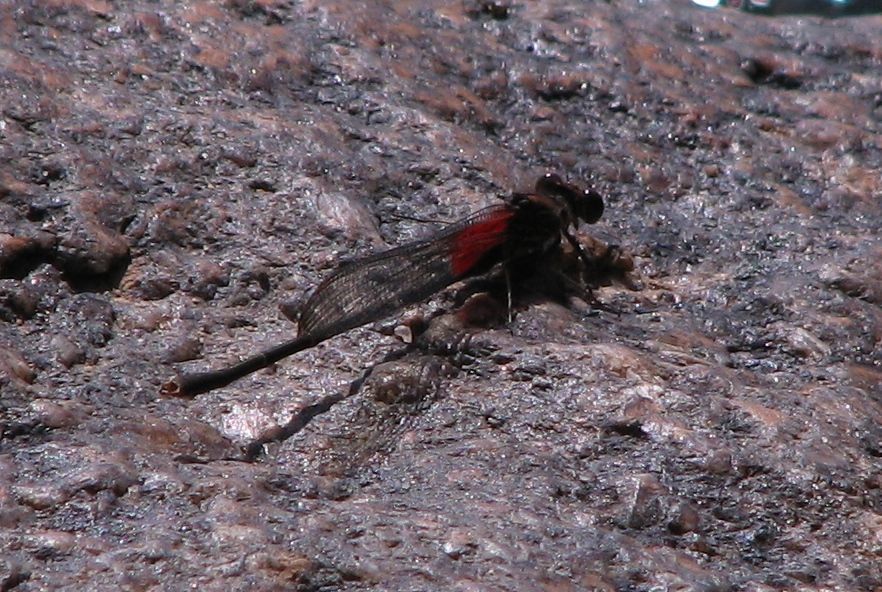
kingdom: Animalia
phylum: Arthropoda
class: Insecta
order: Odonata
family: Calopterygidae
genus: Hetaerina
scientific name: Hetaerina americana
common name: American rubyspot
